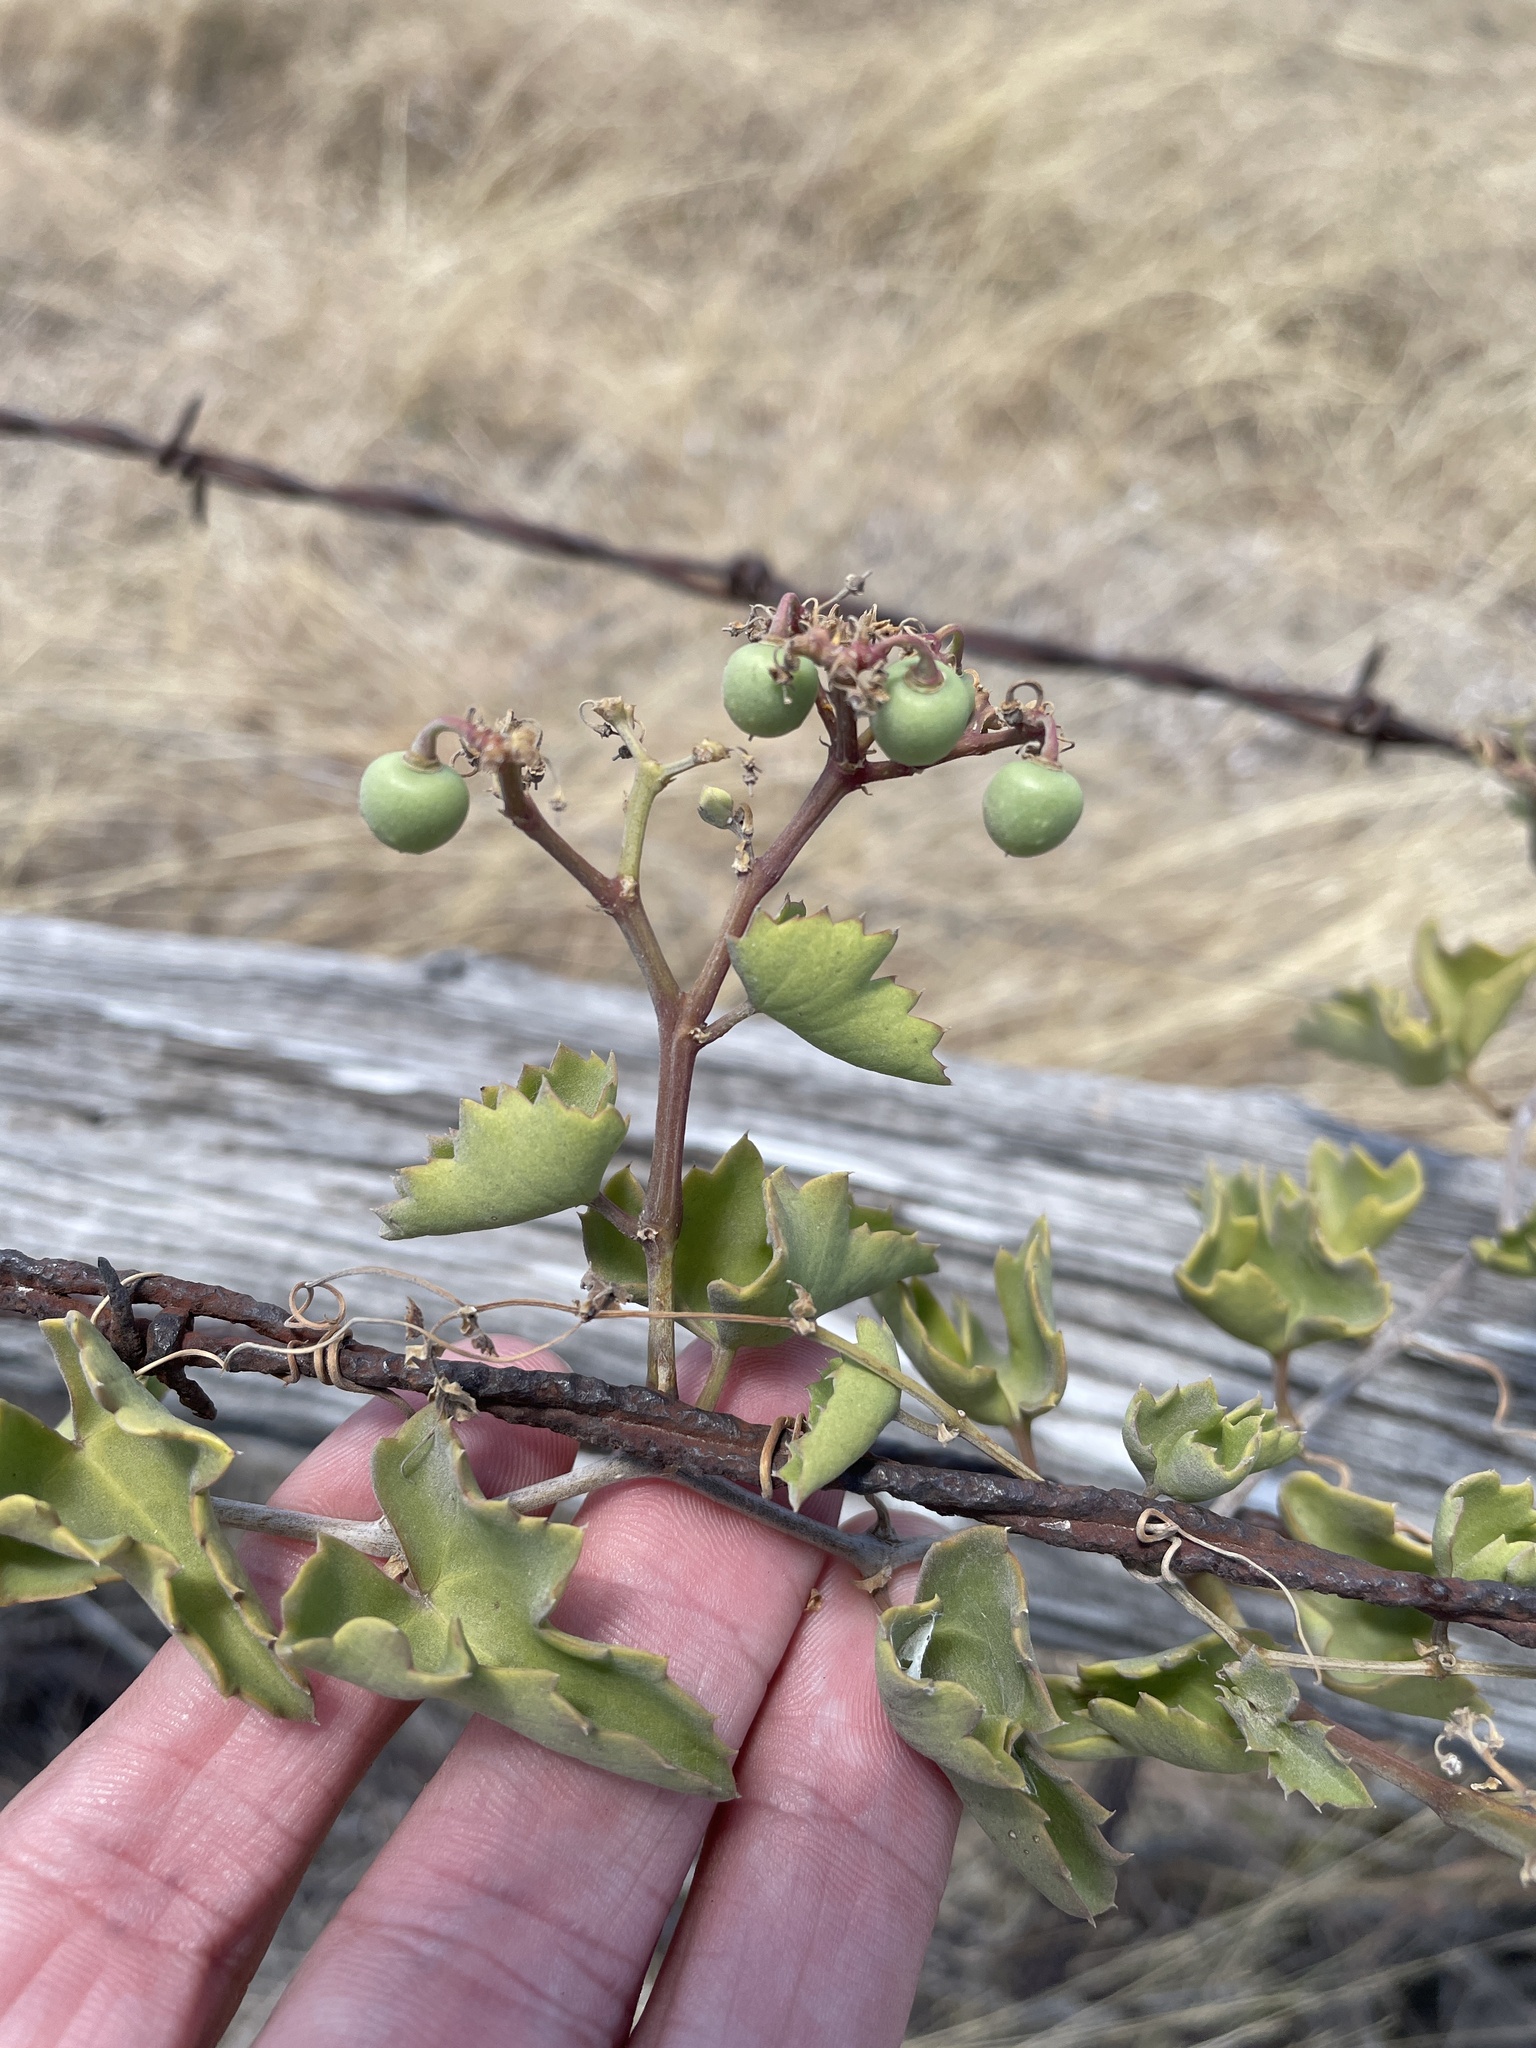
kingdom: Plantae
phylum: Tracheophyta
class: Magnoliopsida
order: Vitales
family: Vitaceae
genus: Cissus
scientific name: Cissus trifoliata
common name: Vine-sorrel
